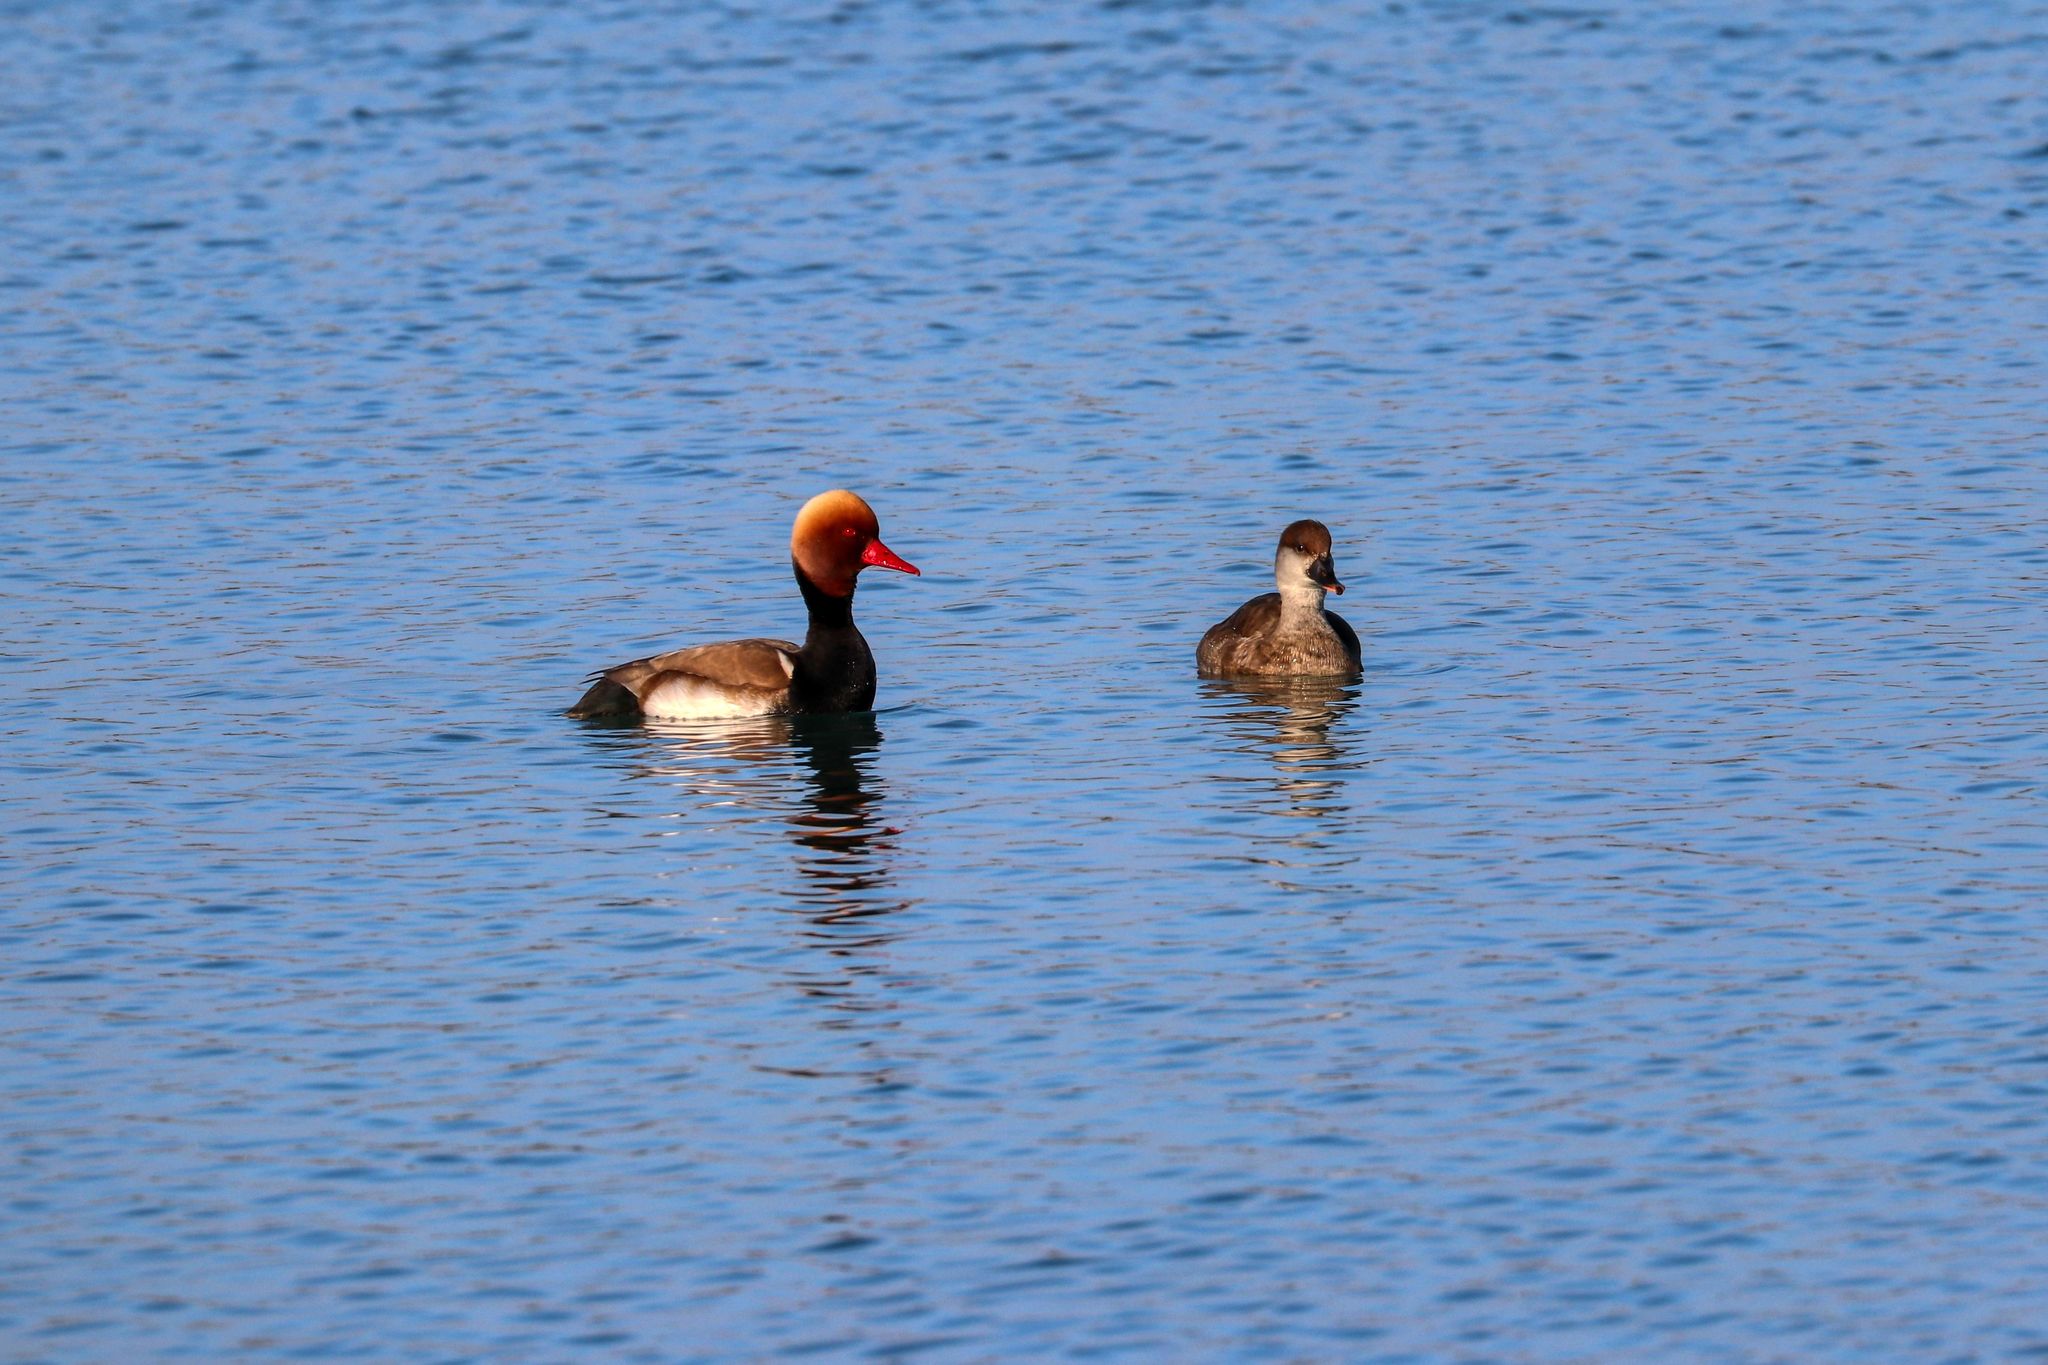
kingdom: Animalia
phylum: Chordata
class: Aves
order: Anseriformes
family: Anatidae
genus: Netta
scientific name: Netta rufina
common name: Red-crested pochard
